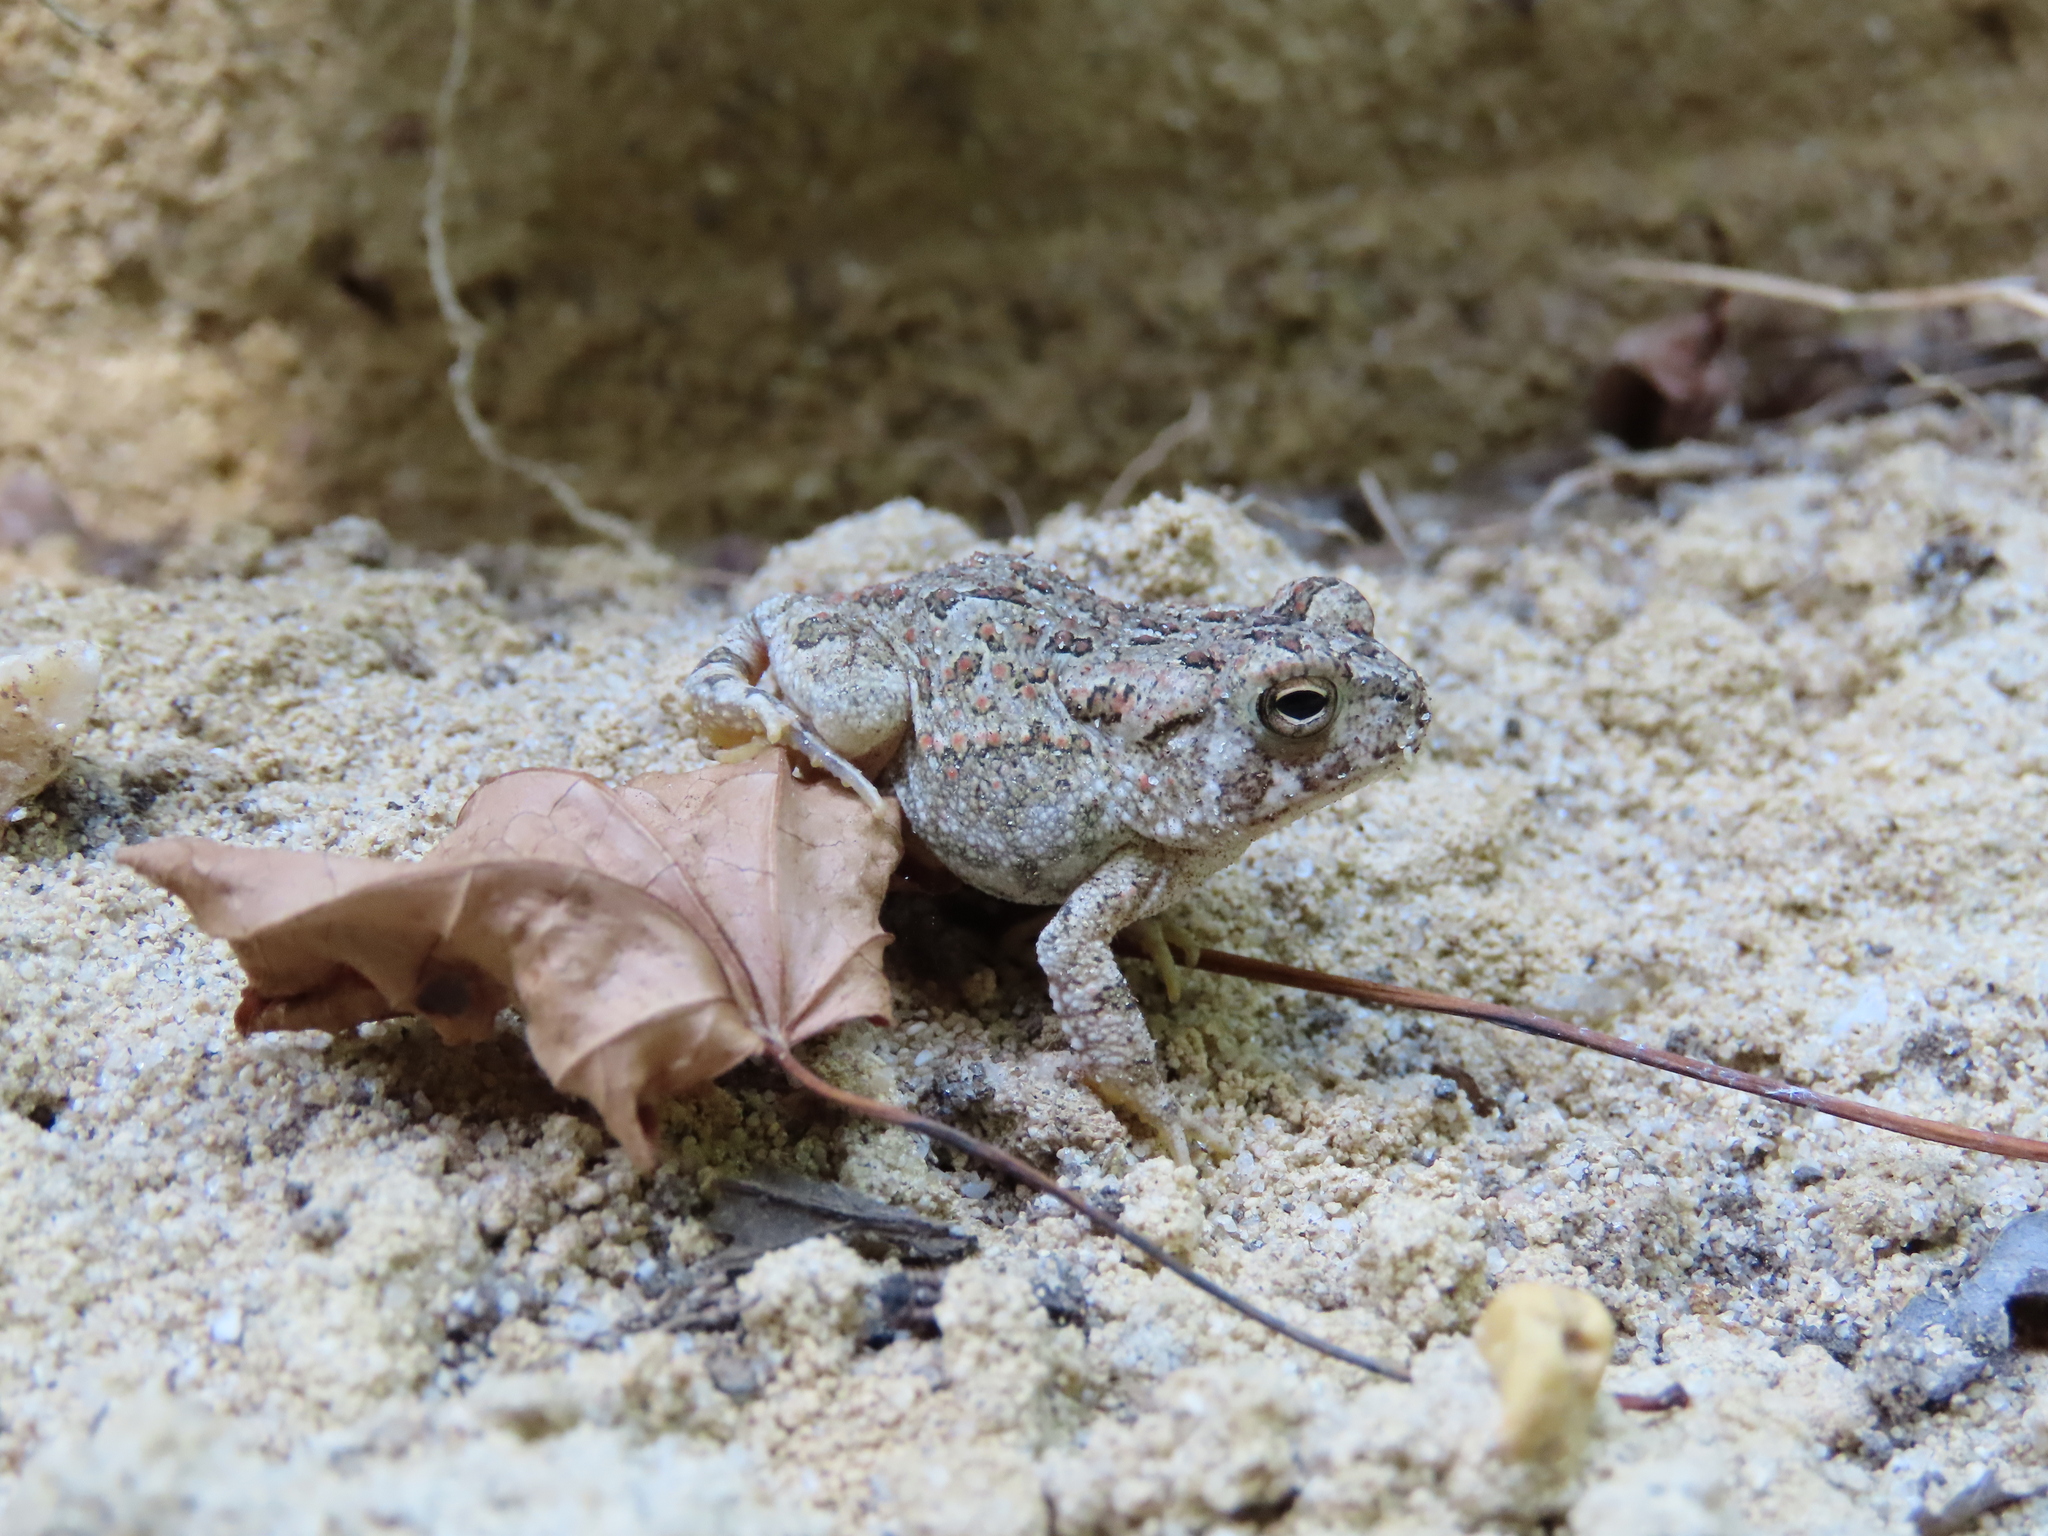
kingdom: Animalia
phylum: Chordata
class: Amphibia
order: Anura
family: Bufonidae
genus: Anaxyrus
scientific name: Anaxyrus fowleri
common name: Fowler's toad
